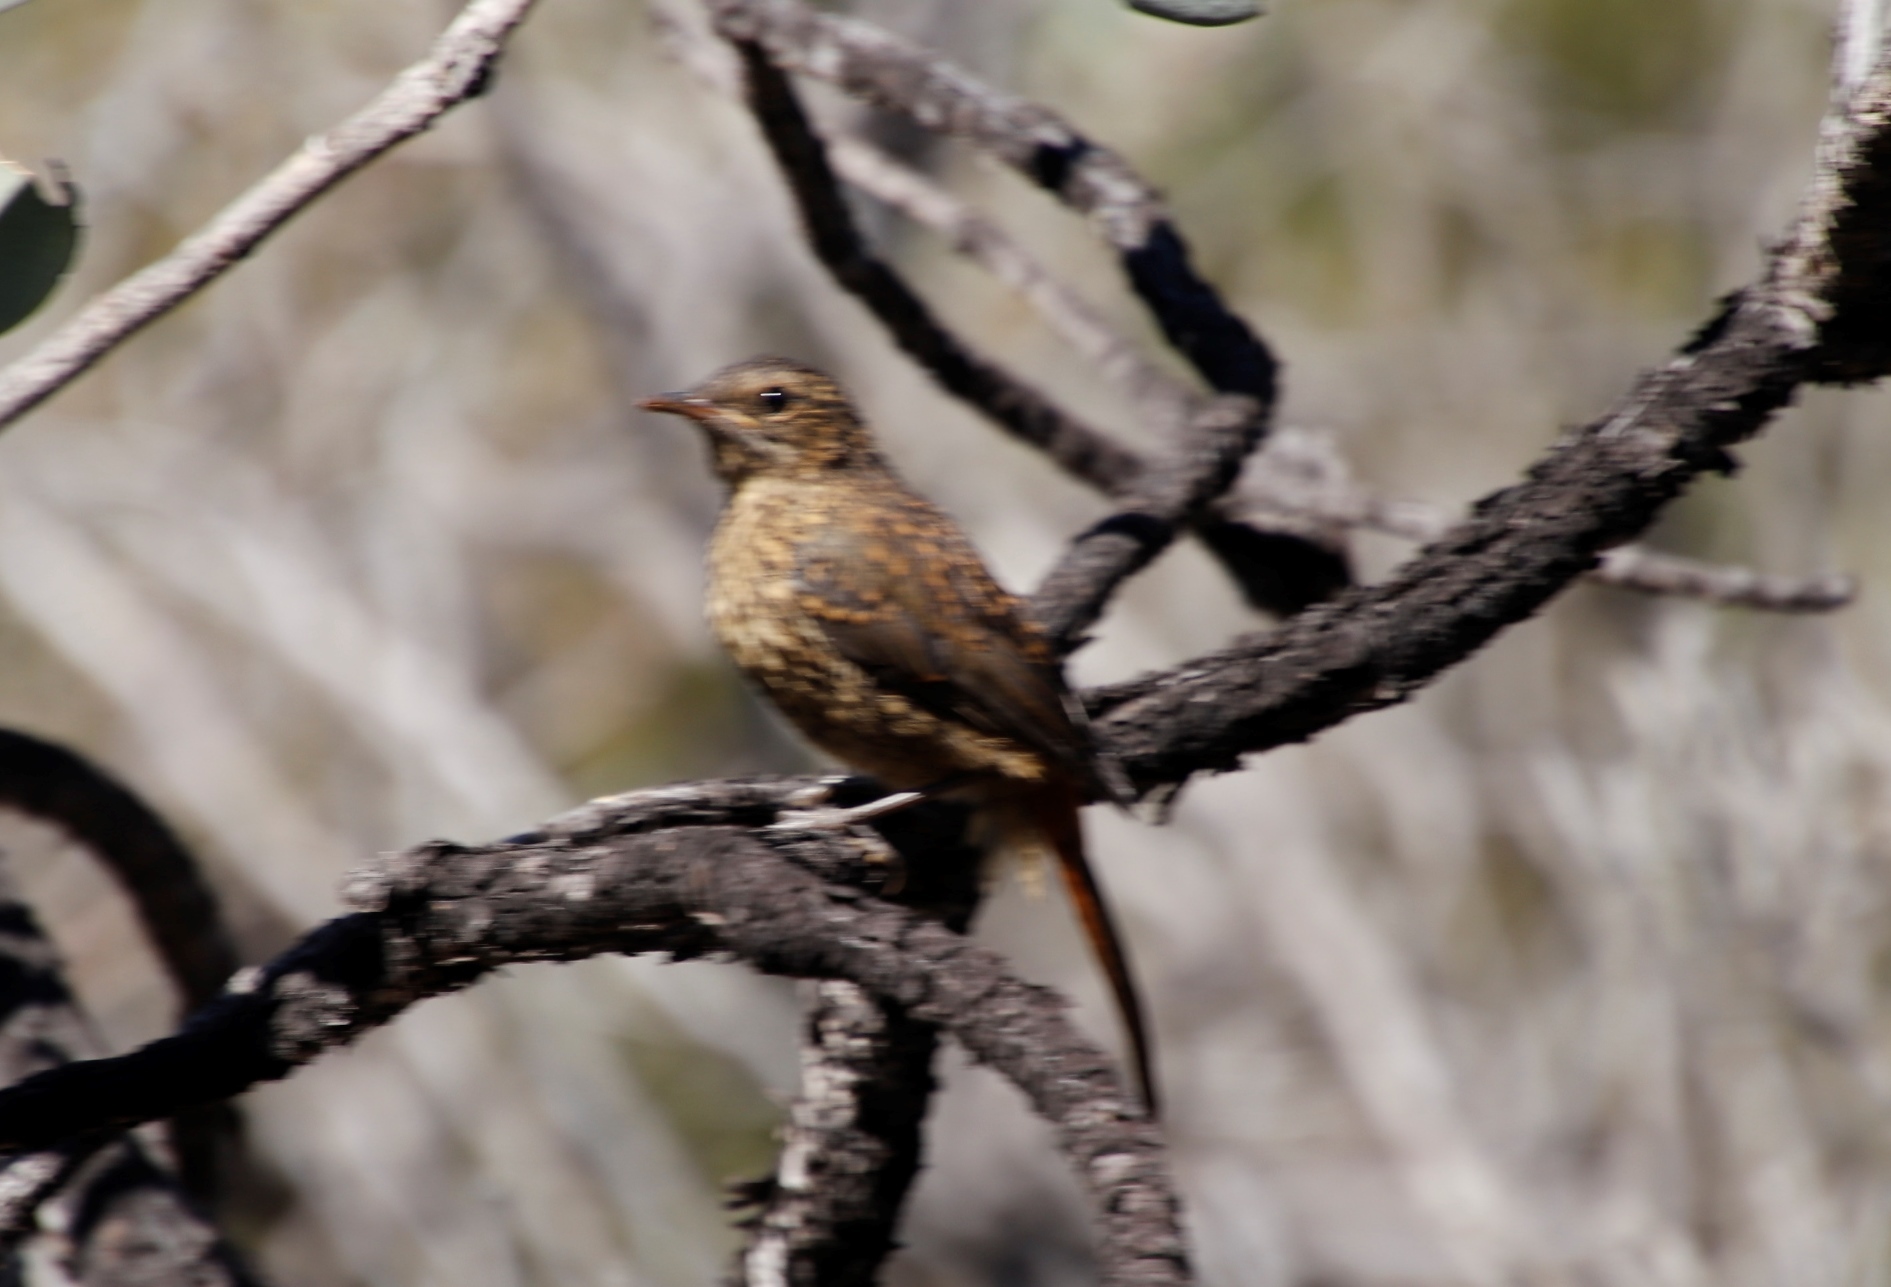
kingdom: Animalia
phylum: Chordata
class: Aves
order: Passeriformes
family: Muscicapidae
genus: Cossypha
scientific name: Cossypha caffra
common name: Cape robin-chat
